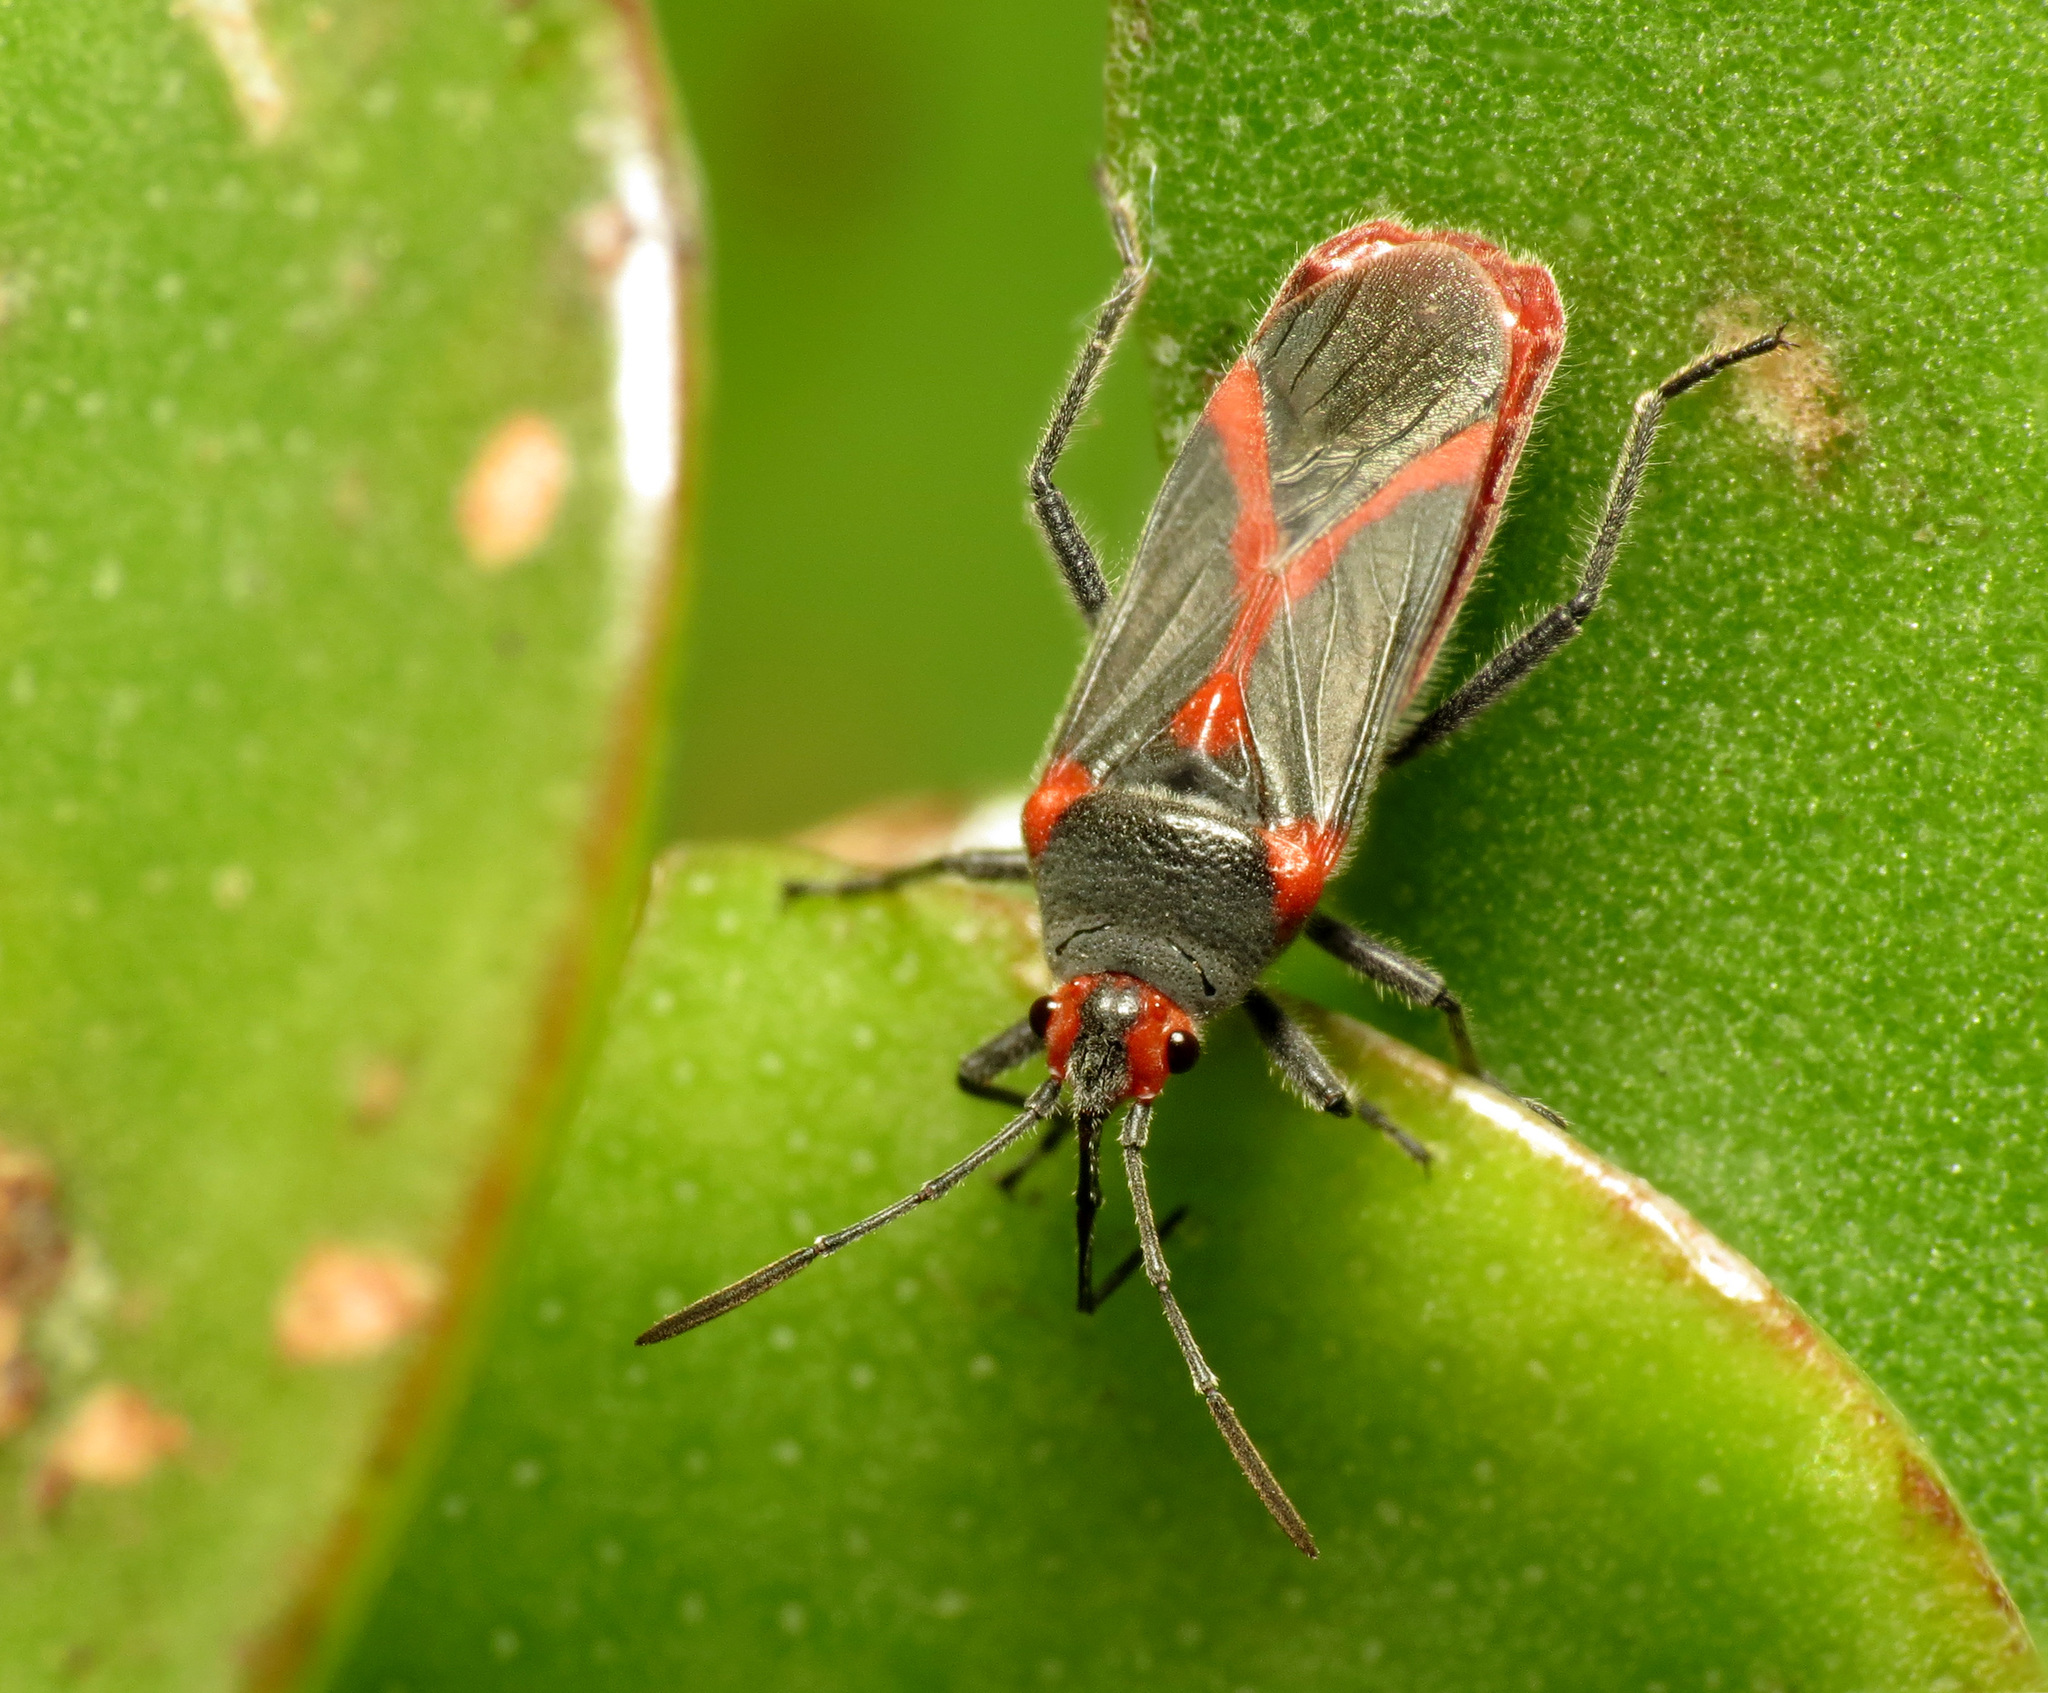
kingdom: Animalia
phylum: Arthropoda
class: Insecta
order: Hemiptera
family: Lygaeidae
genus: Caenocoris
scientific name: Caenocoris nerii
